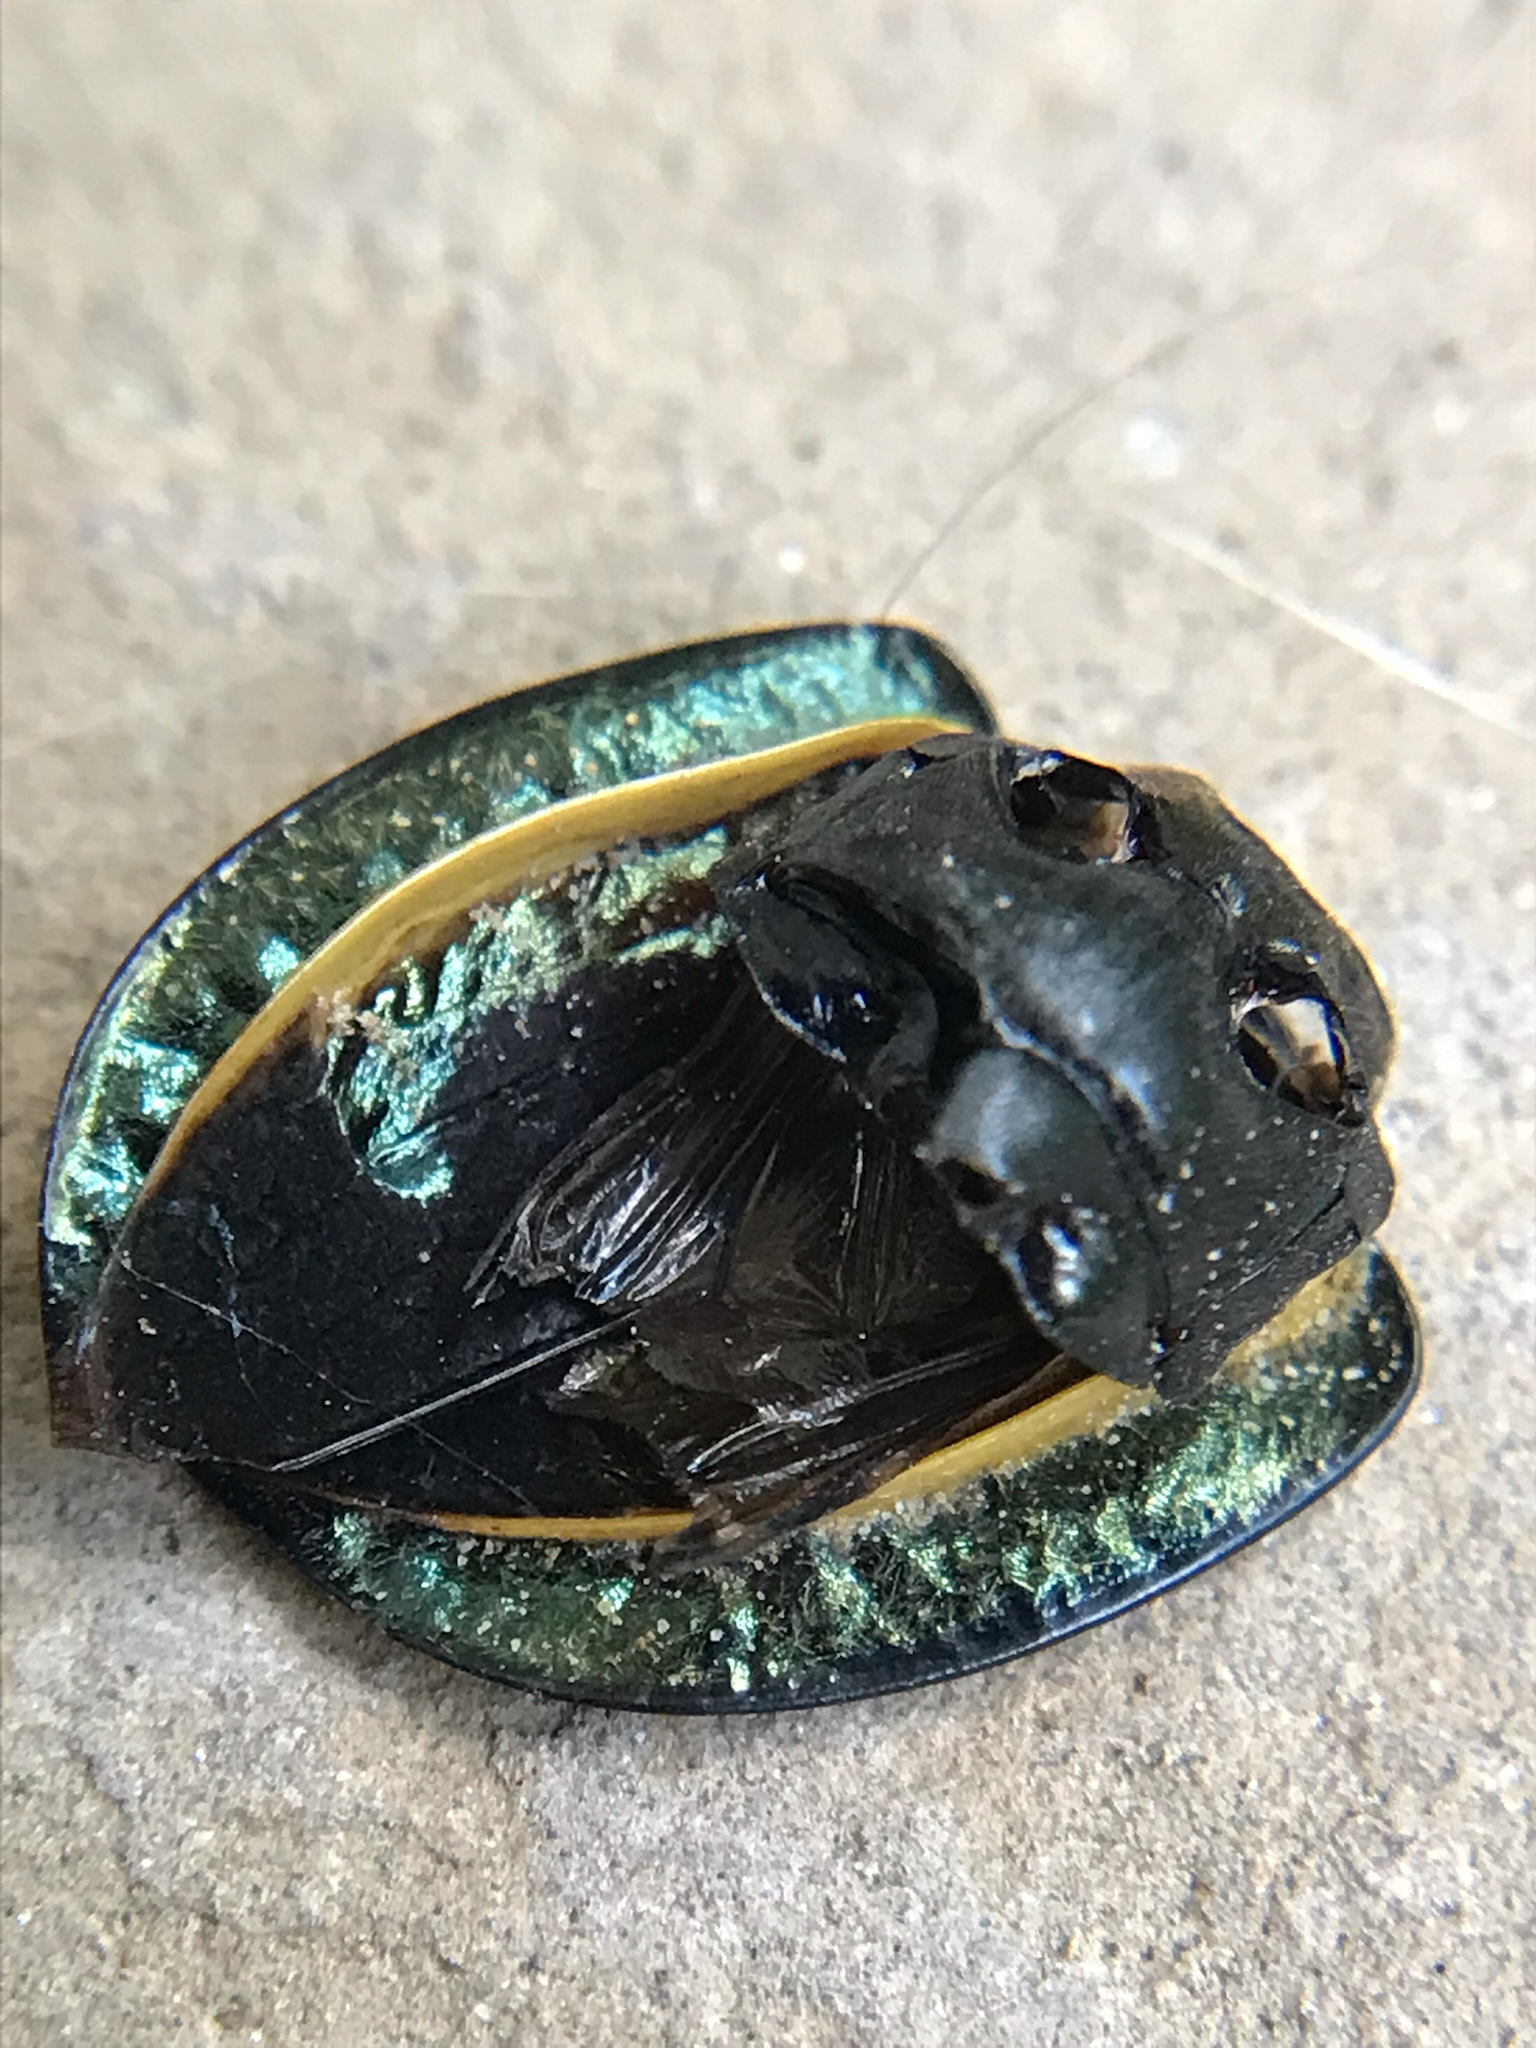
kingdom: Animalia
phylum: Arthropoda
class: Insecta
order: Coleoptera
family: Staphylinidae
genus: Necrophila
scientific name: Necrophila americana
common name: American carrion beetle
